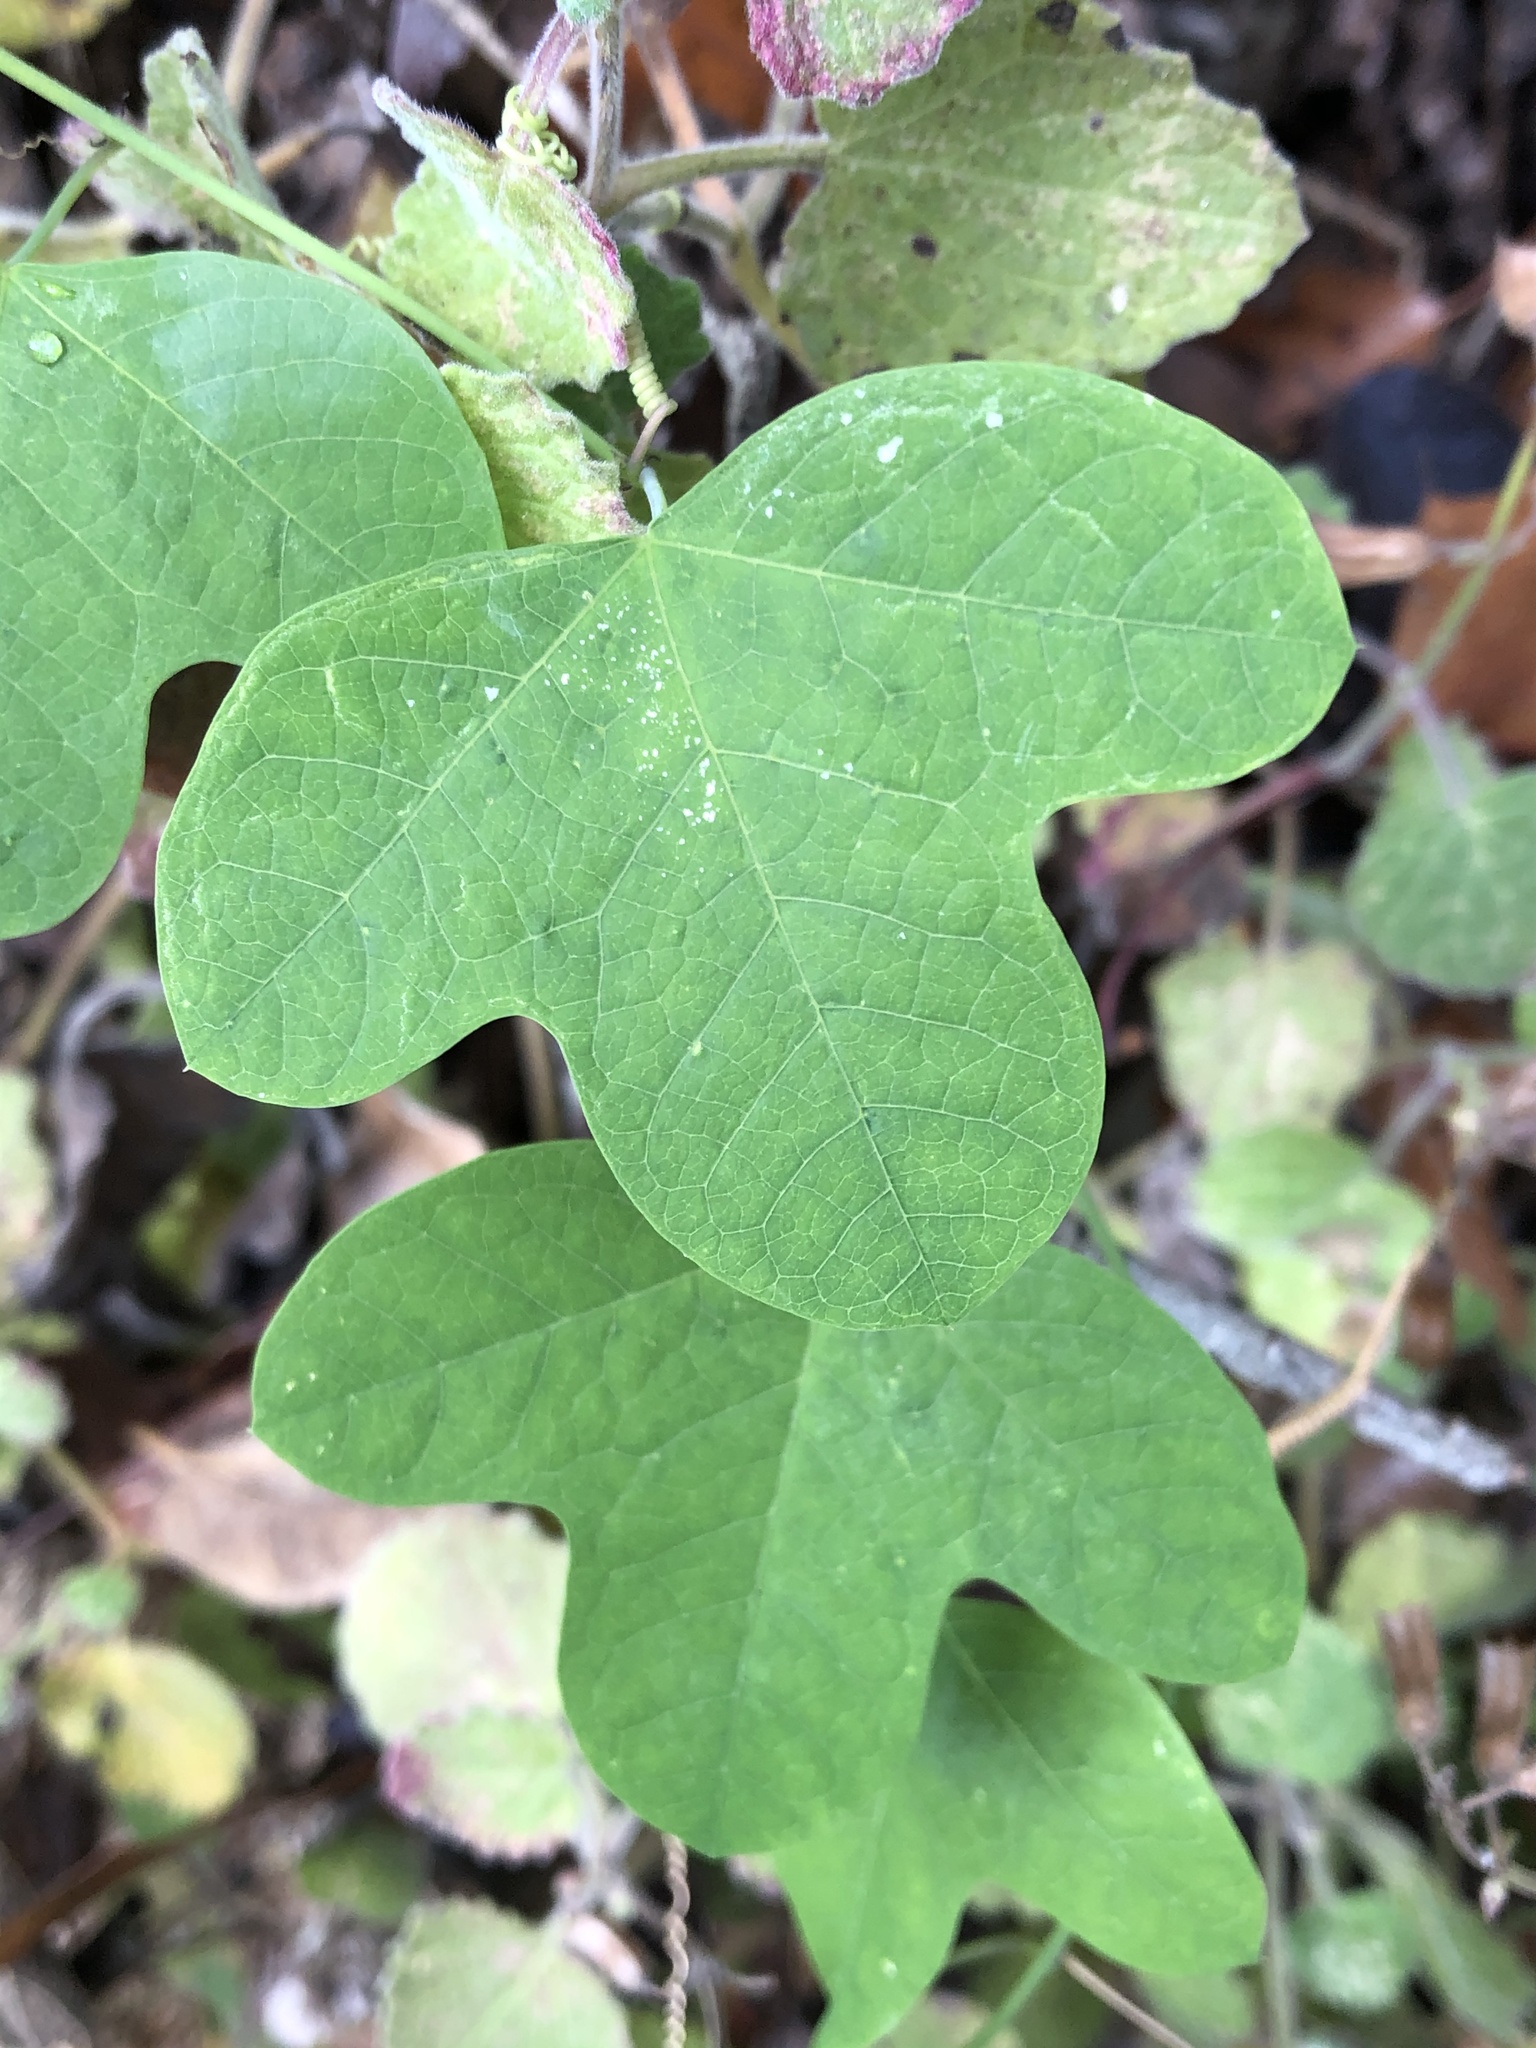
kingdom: Plantae
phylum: Tracheophyta
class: Magnoliopsida
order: Malpighiales
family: Passifloraceae
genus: Passiflora
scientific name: Passiflora affinis
